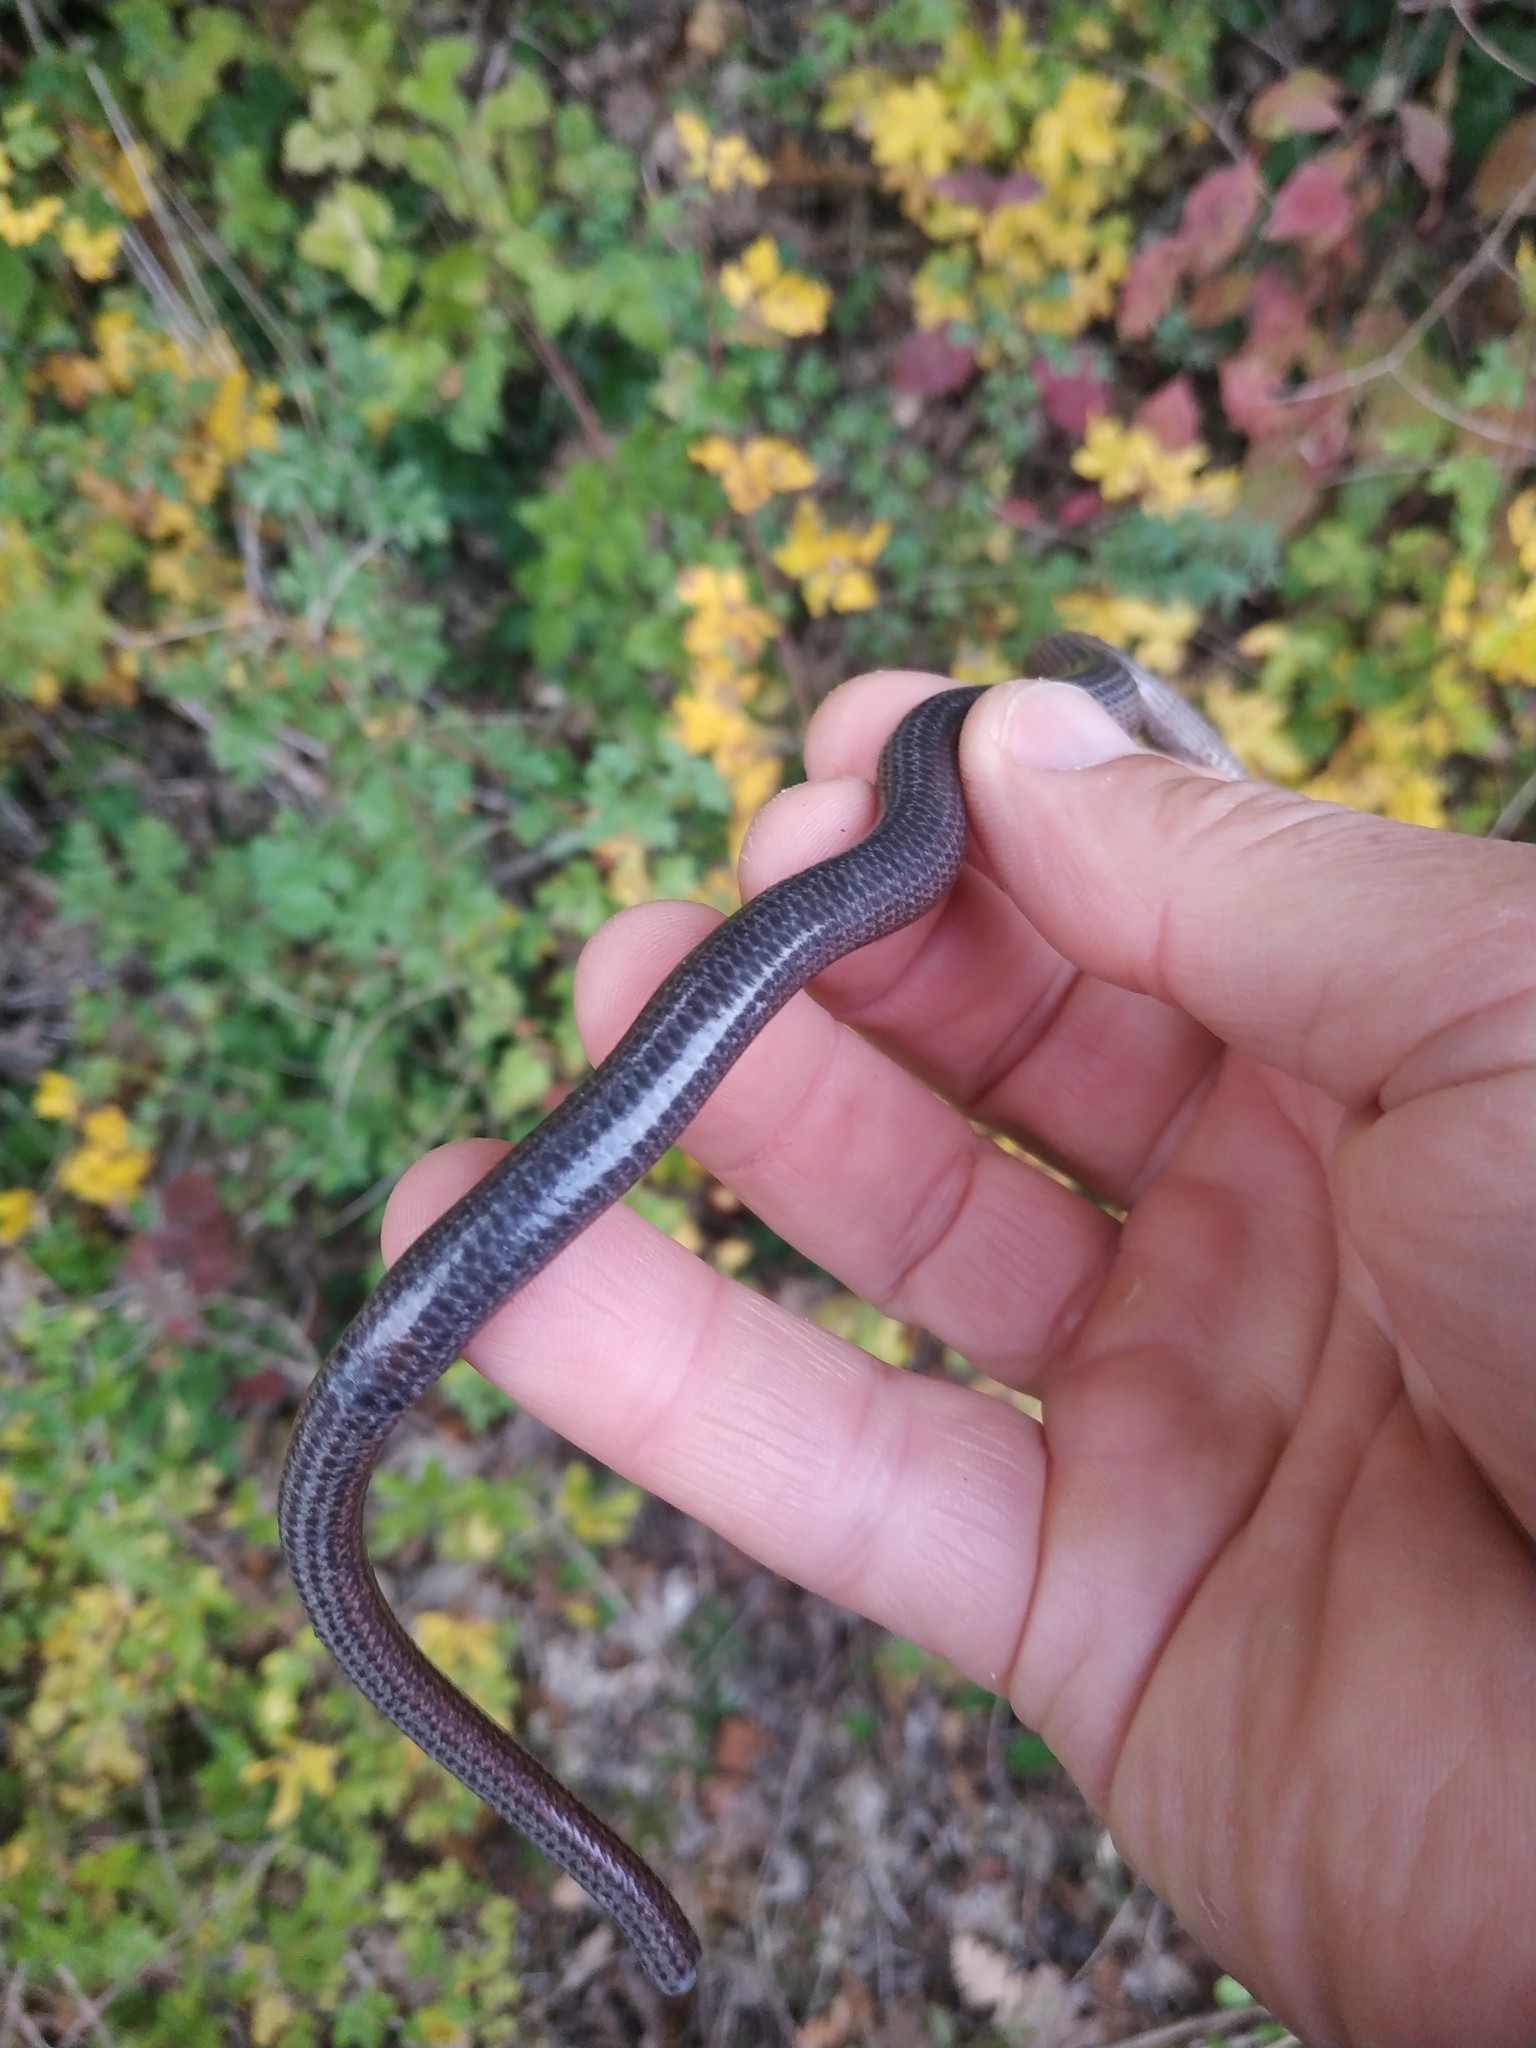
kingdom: Animalia
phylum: Chordata
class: Squamata
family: Anguidae
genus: Anguis
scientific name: Anguis veronensis
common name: Italian slow worm
